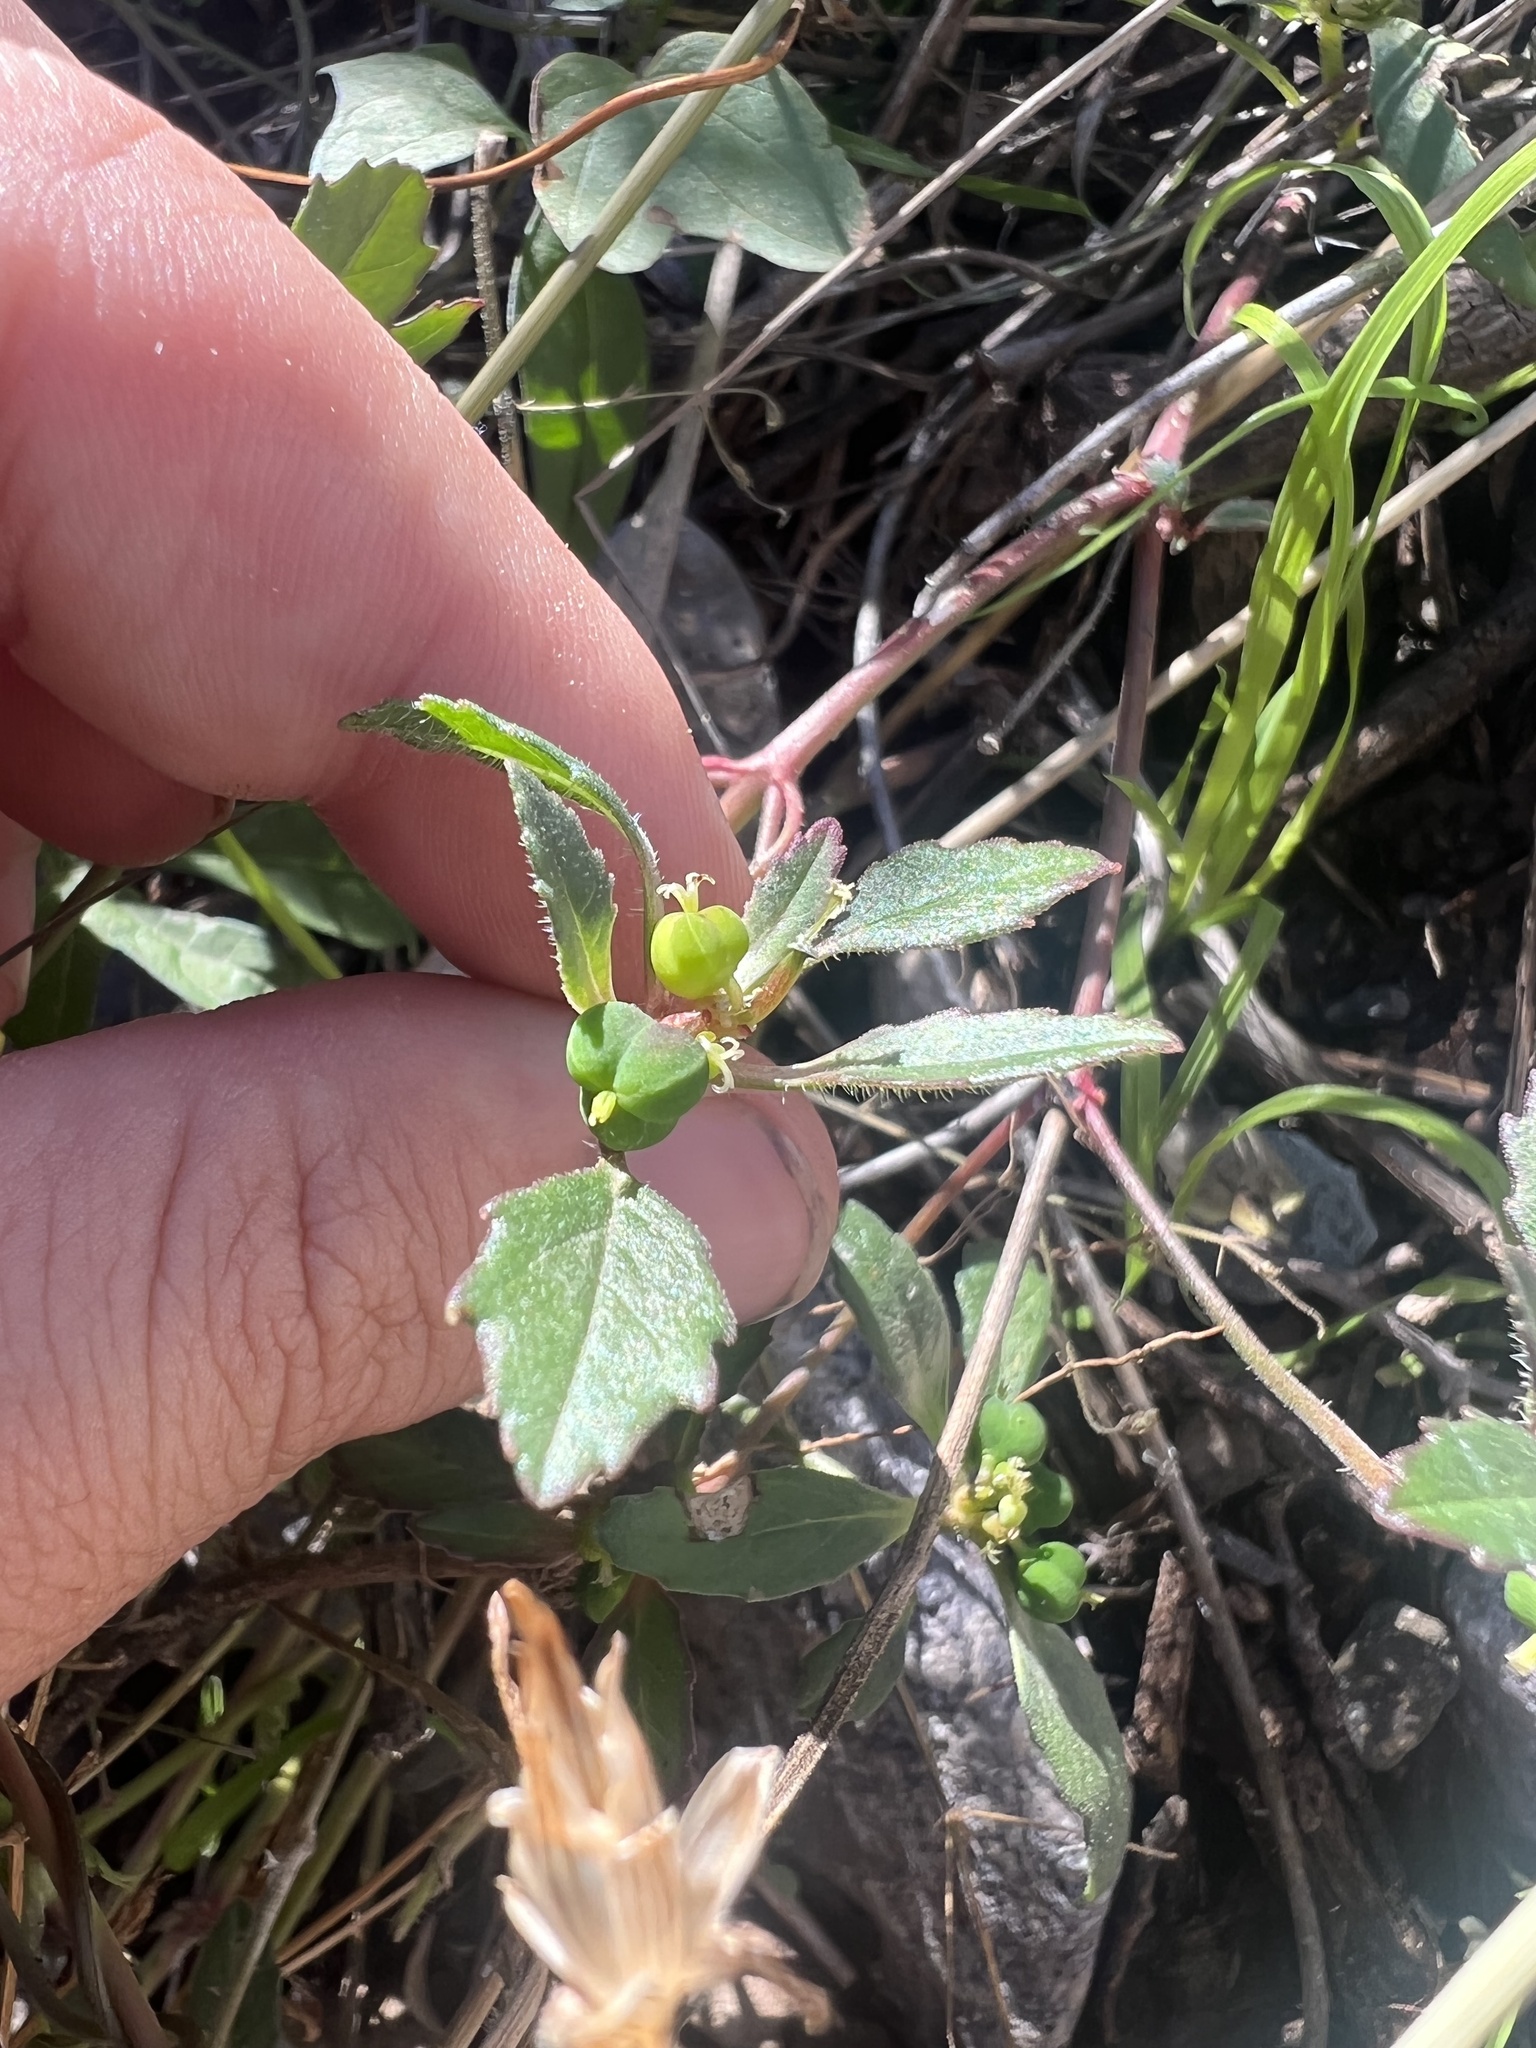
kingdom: Plantae
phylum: Tracheophyta
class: Magnoliopsida
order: Malpighiales
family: Euphorbiaceae
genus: Euphorbia
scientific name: Euphorbia davidii
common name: David's spurge
